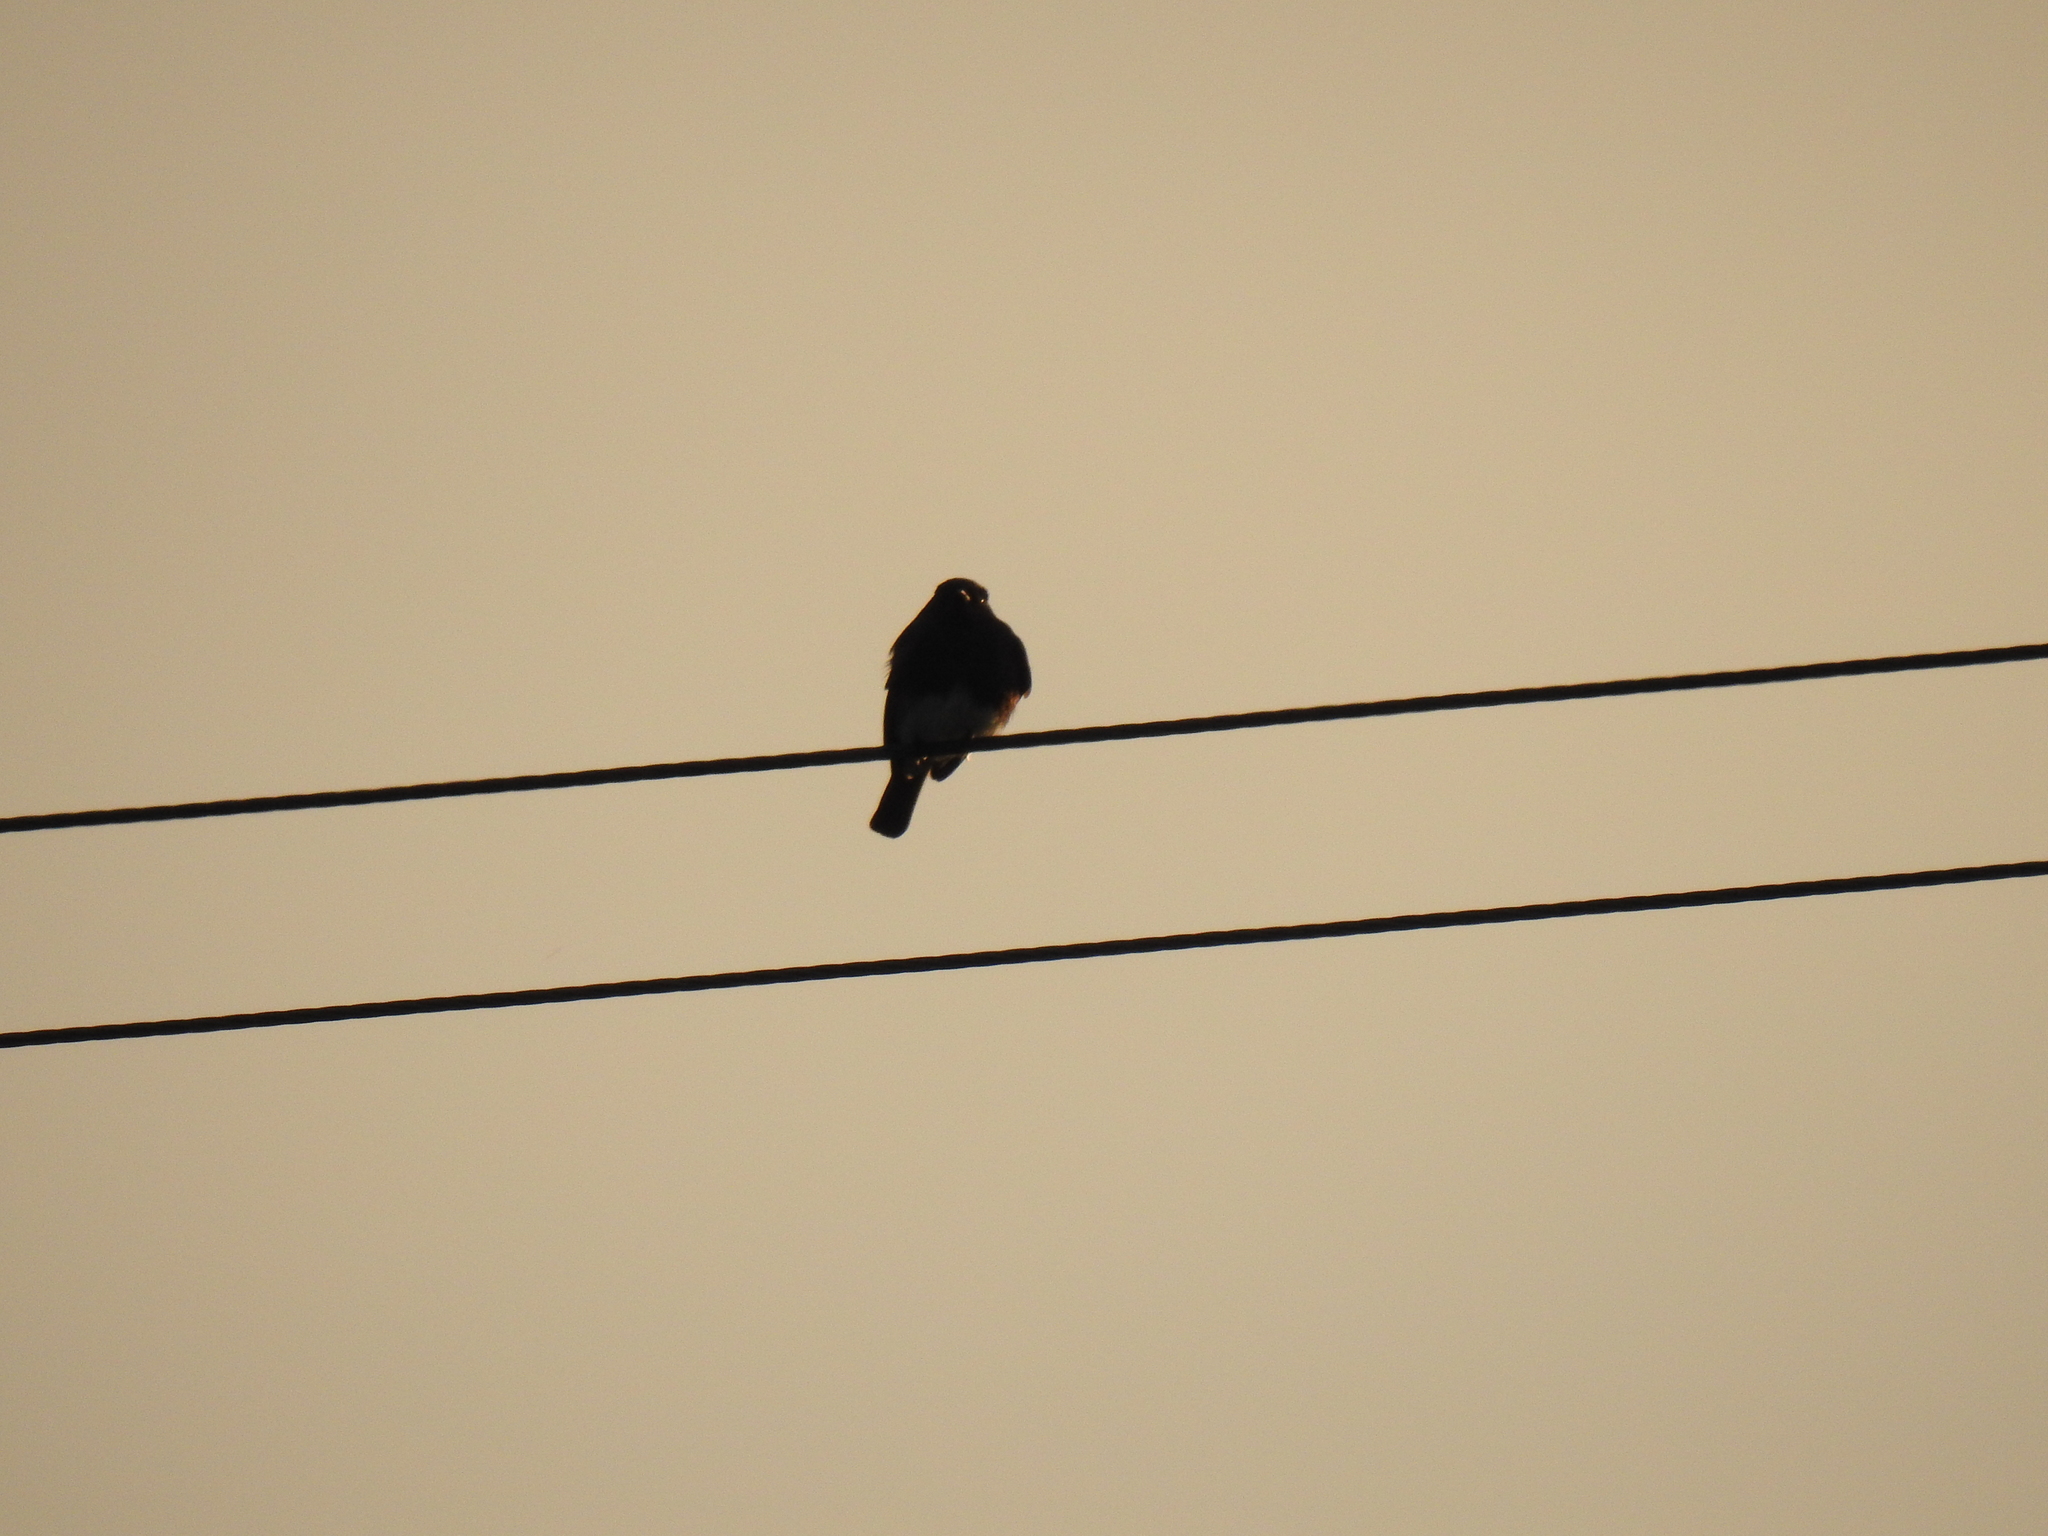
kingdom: Animalia
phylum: Chordata
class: Aves
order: Passeriformes
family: Tyrannidae
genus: Sayornis
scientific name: Sayornis nigricans
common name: Black phoebe
